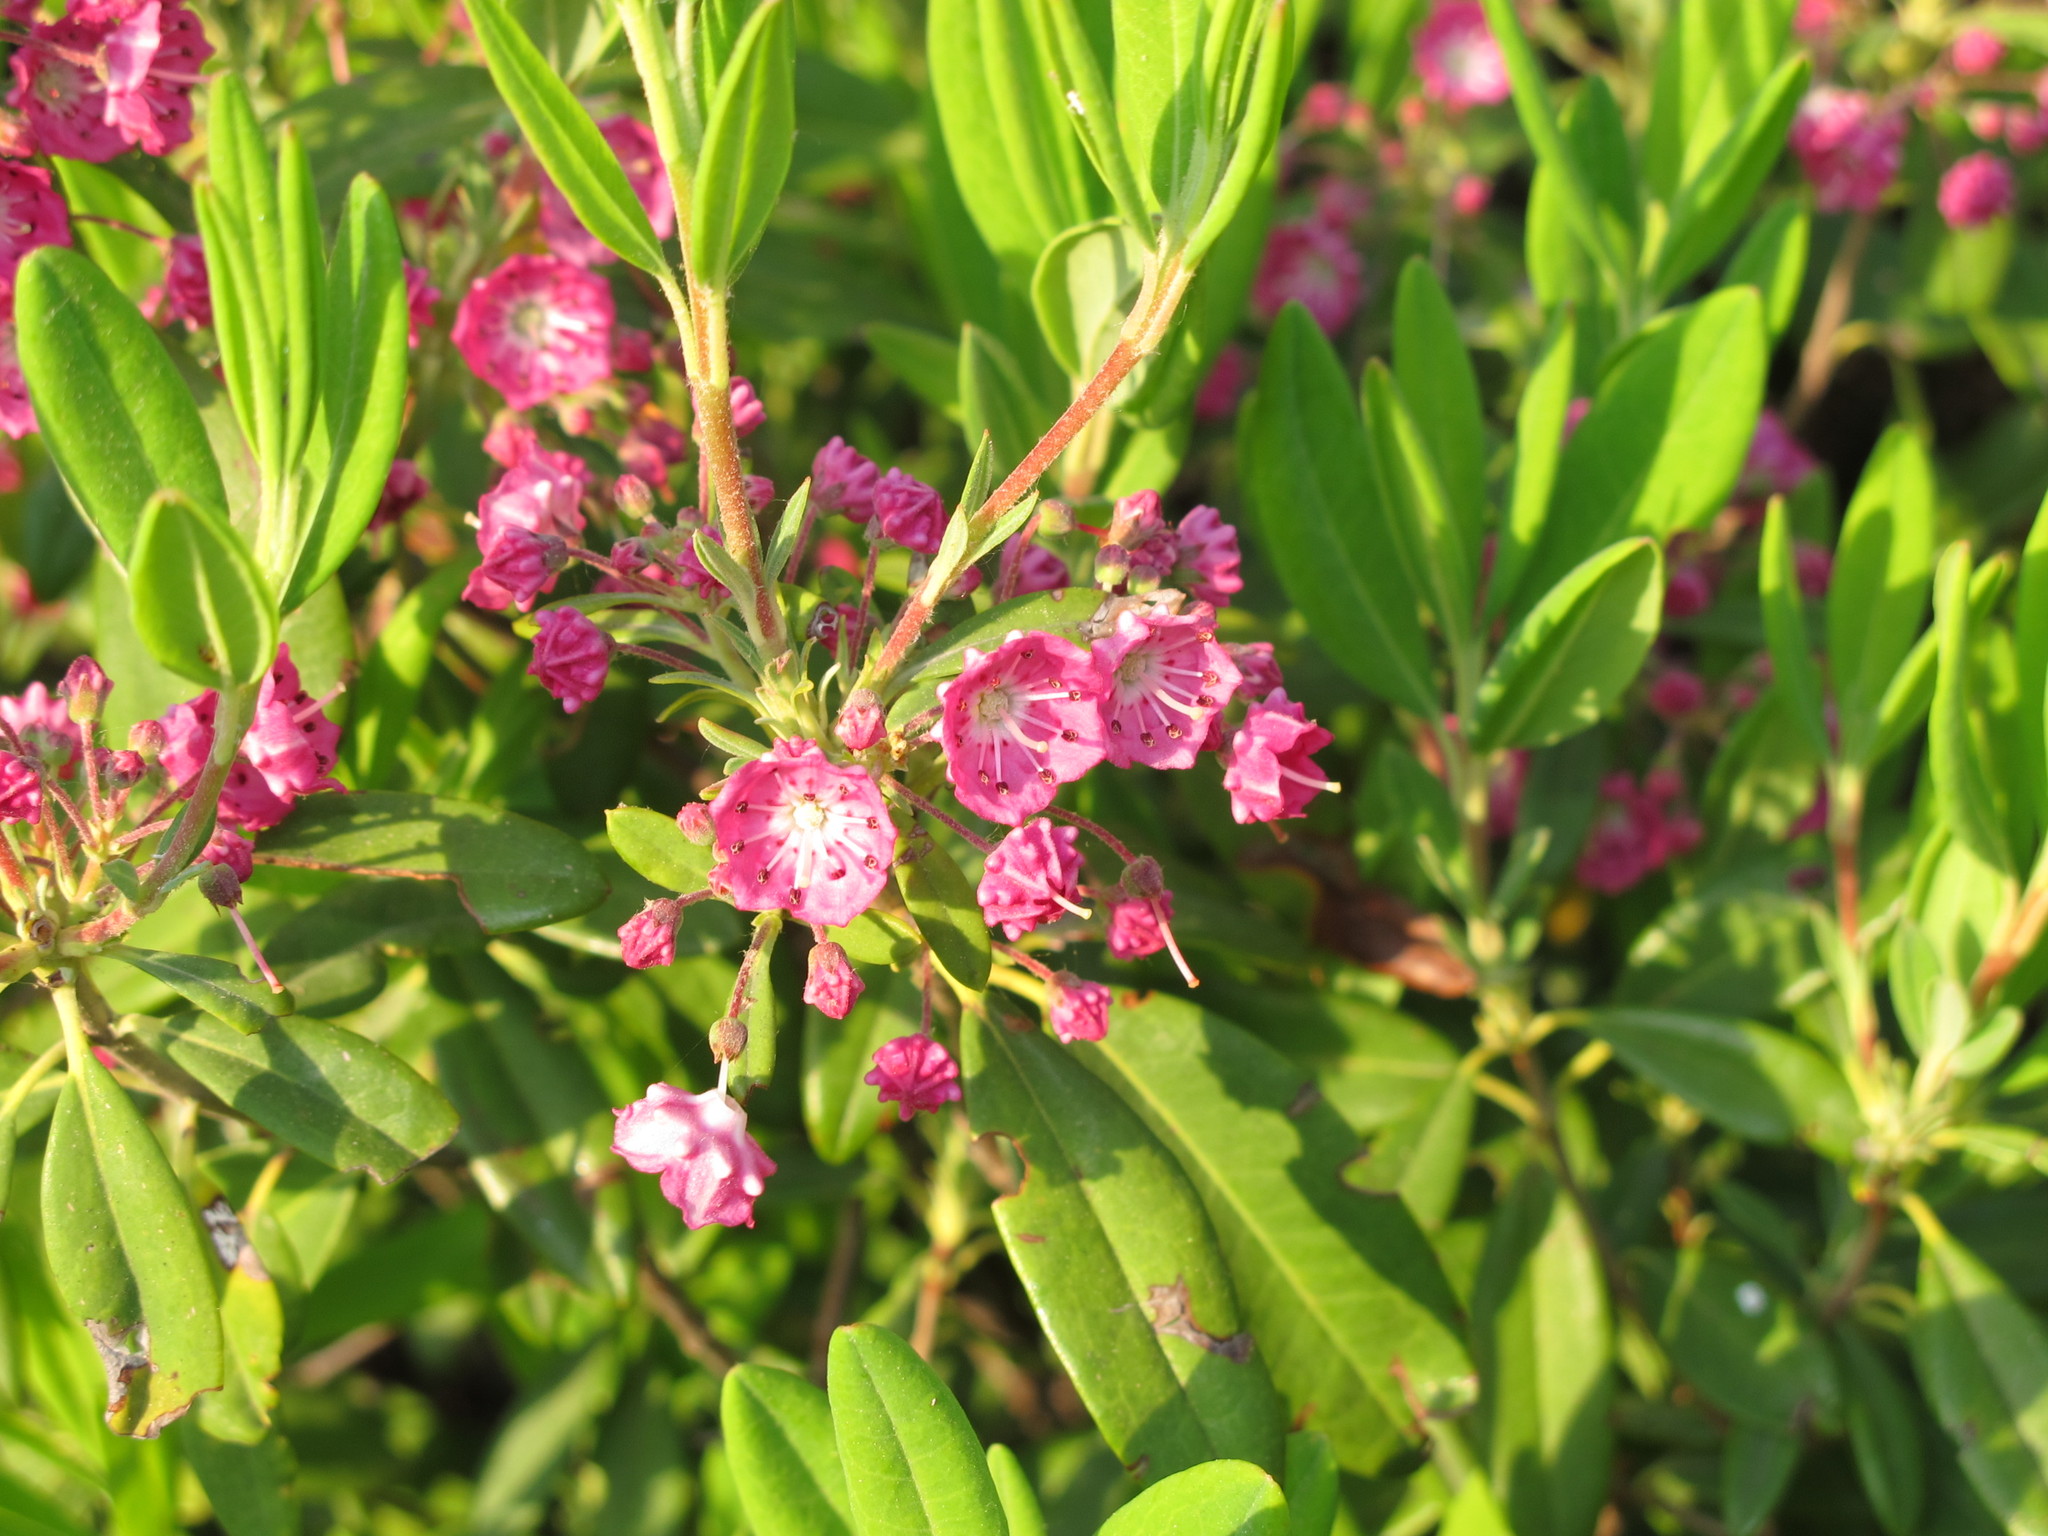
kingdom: Plantae
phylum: Tracheophyta
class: Magnoliopsida
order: Ericales
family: Ericaceae
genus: Kalmia
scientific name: Kalmia angustifolia
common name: Sheep-laurel
